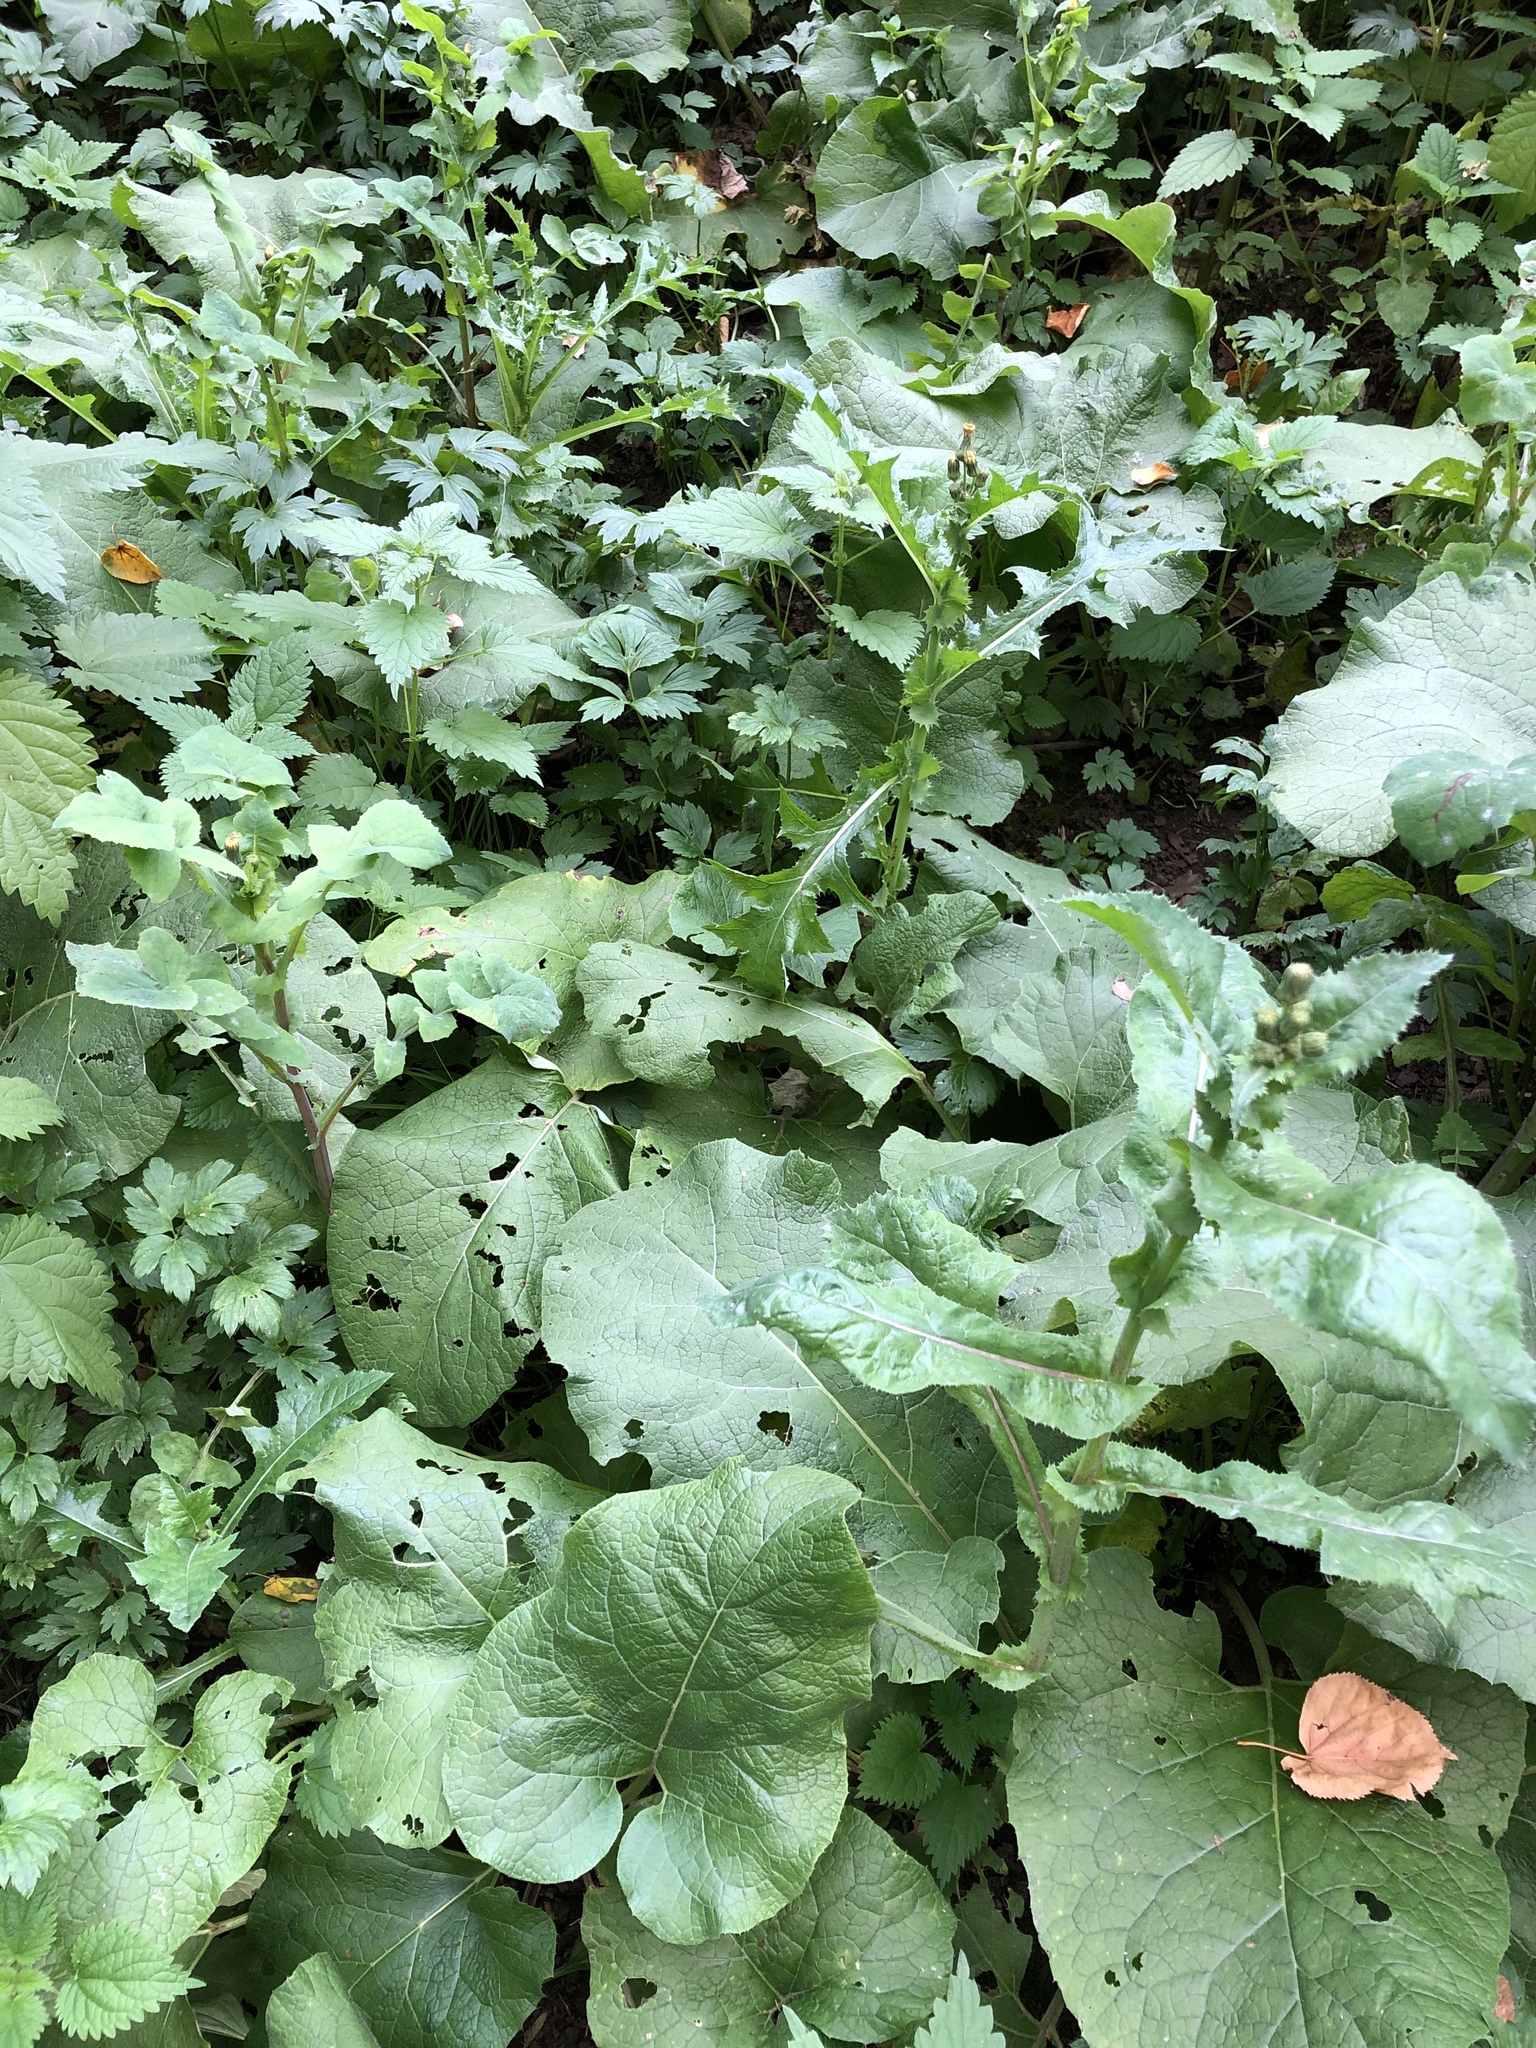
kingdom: Plantae
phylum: Tracheophyta
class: Magnoliopsida
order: Asterales
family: Asteraceae
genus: Sonchus
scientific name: Sonchus asper
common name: Prickly sow-thistle
